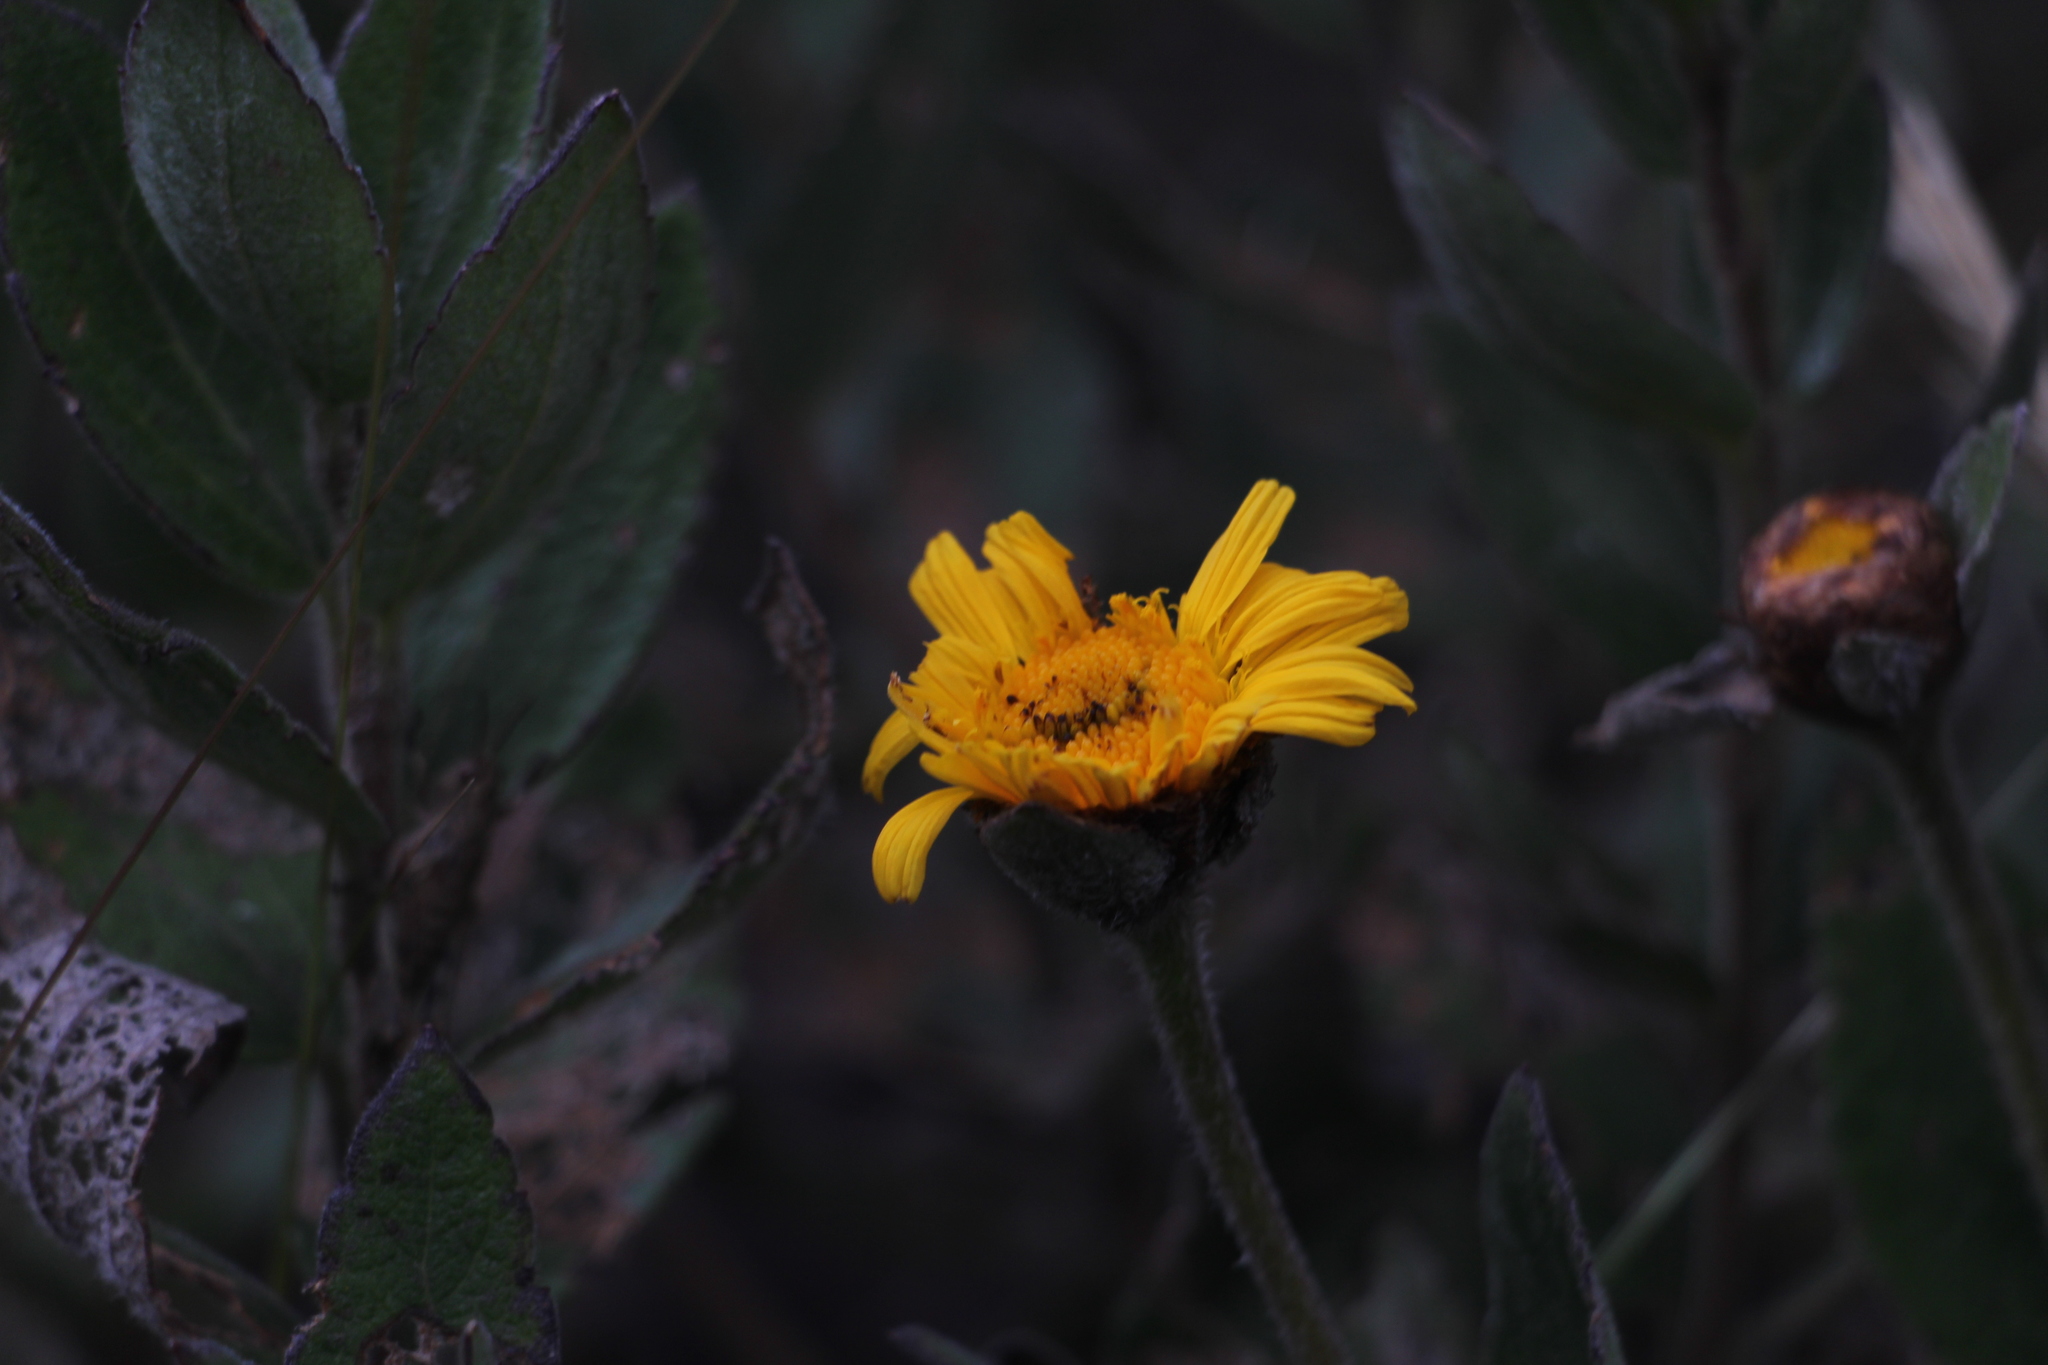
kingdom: Plantae
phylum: Tracheophyta
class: Magnoliopsida
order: Asterales
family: Asteraceae
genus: Calea
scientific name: Calea peruviana
